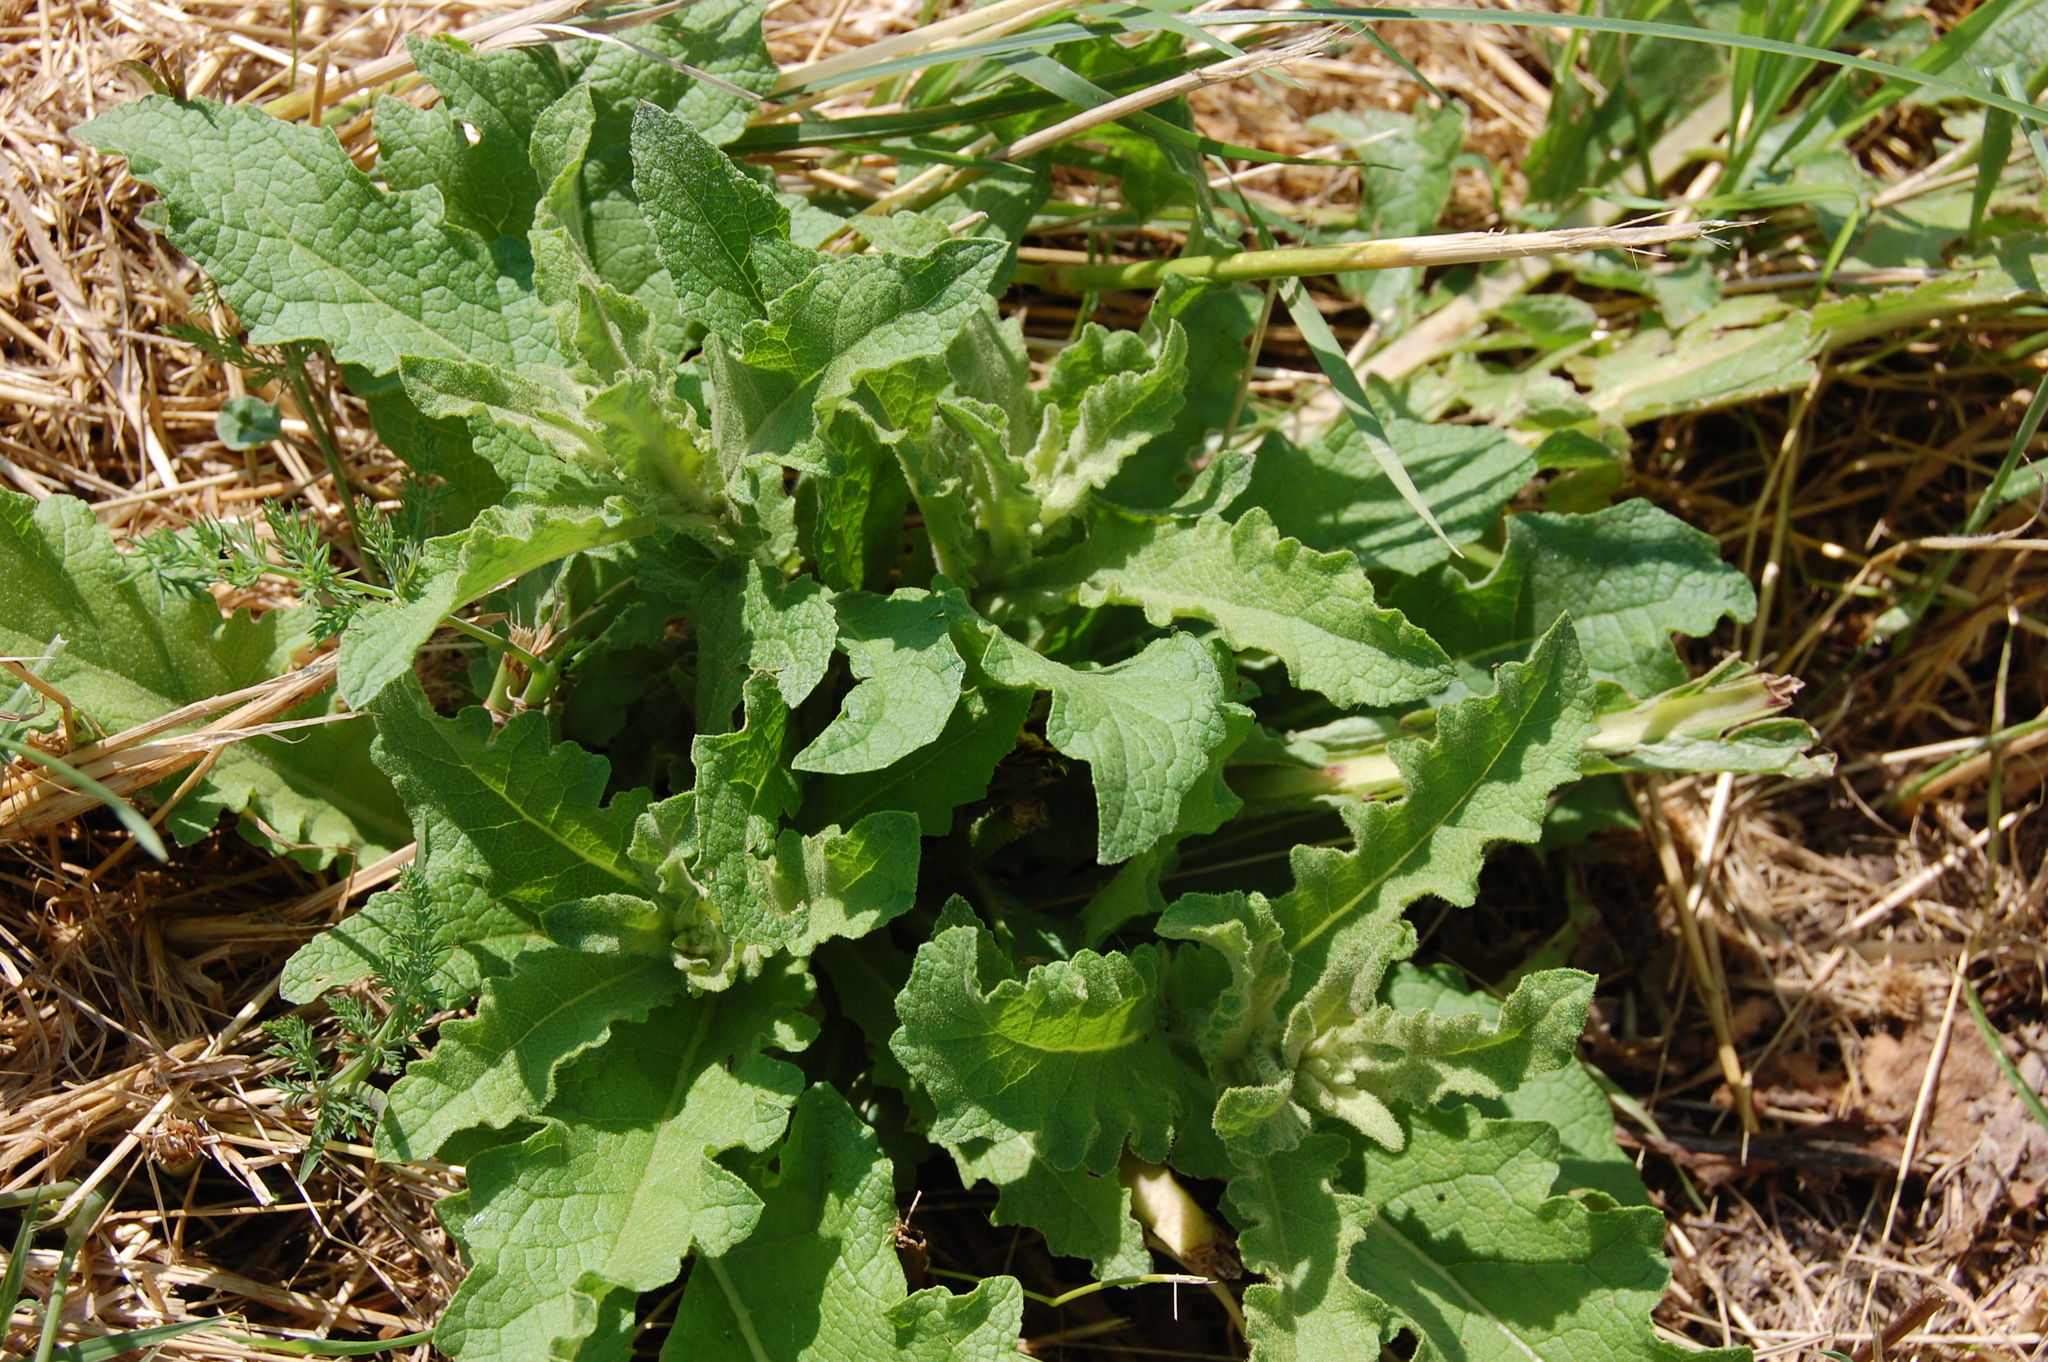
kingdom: Plantae
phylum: Tracheophyta
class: Magnoliopsida
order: Lamiales
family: Scrophulariaceae
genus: Verbascum
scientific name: Verbascum sinuatum
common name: Wavyleaf mullein
